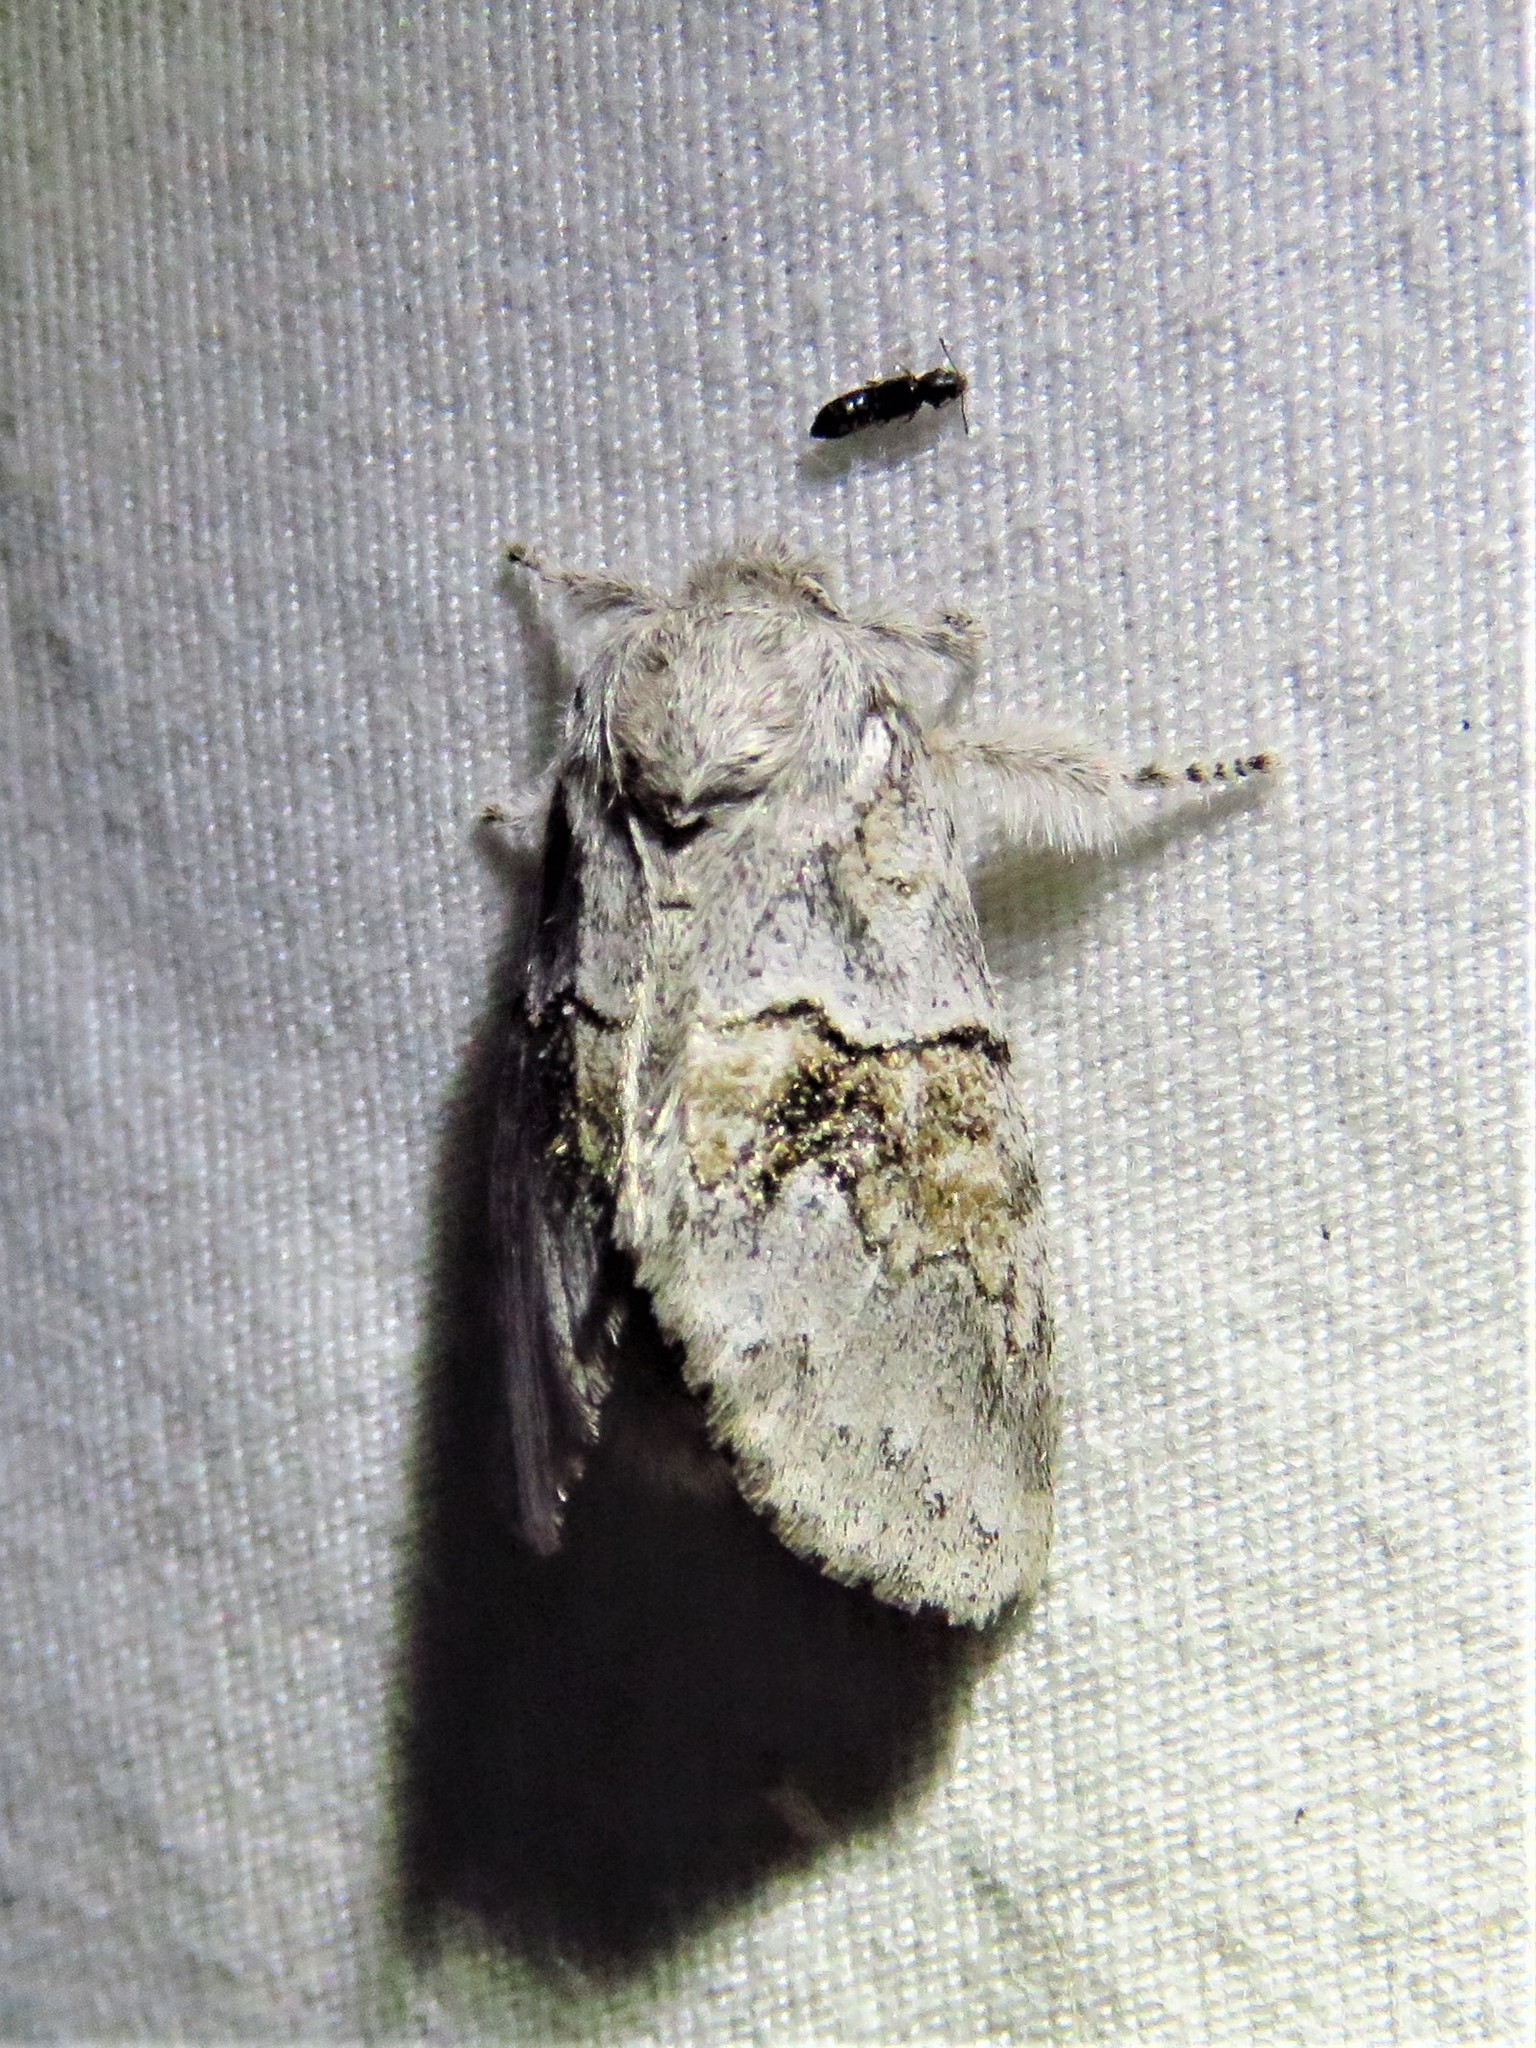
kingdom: Animalia
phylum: Arthropoda
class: Insecta
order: Lepidoptera
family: Notodontidae
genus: Gluphisia
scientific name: Gluphisia septentrionis
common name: Common gluphisia
